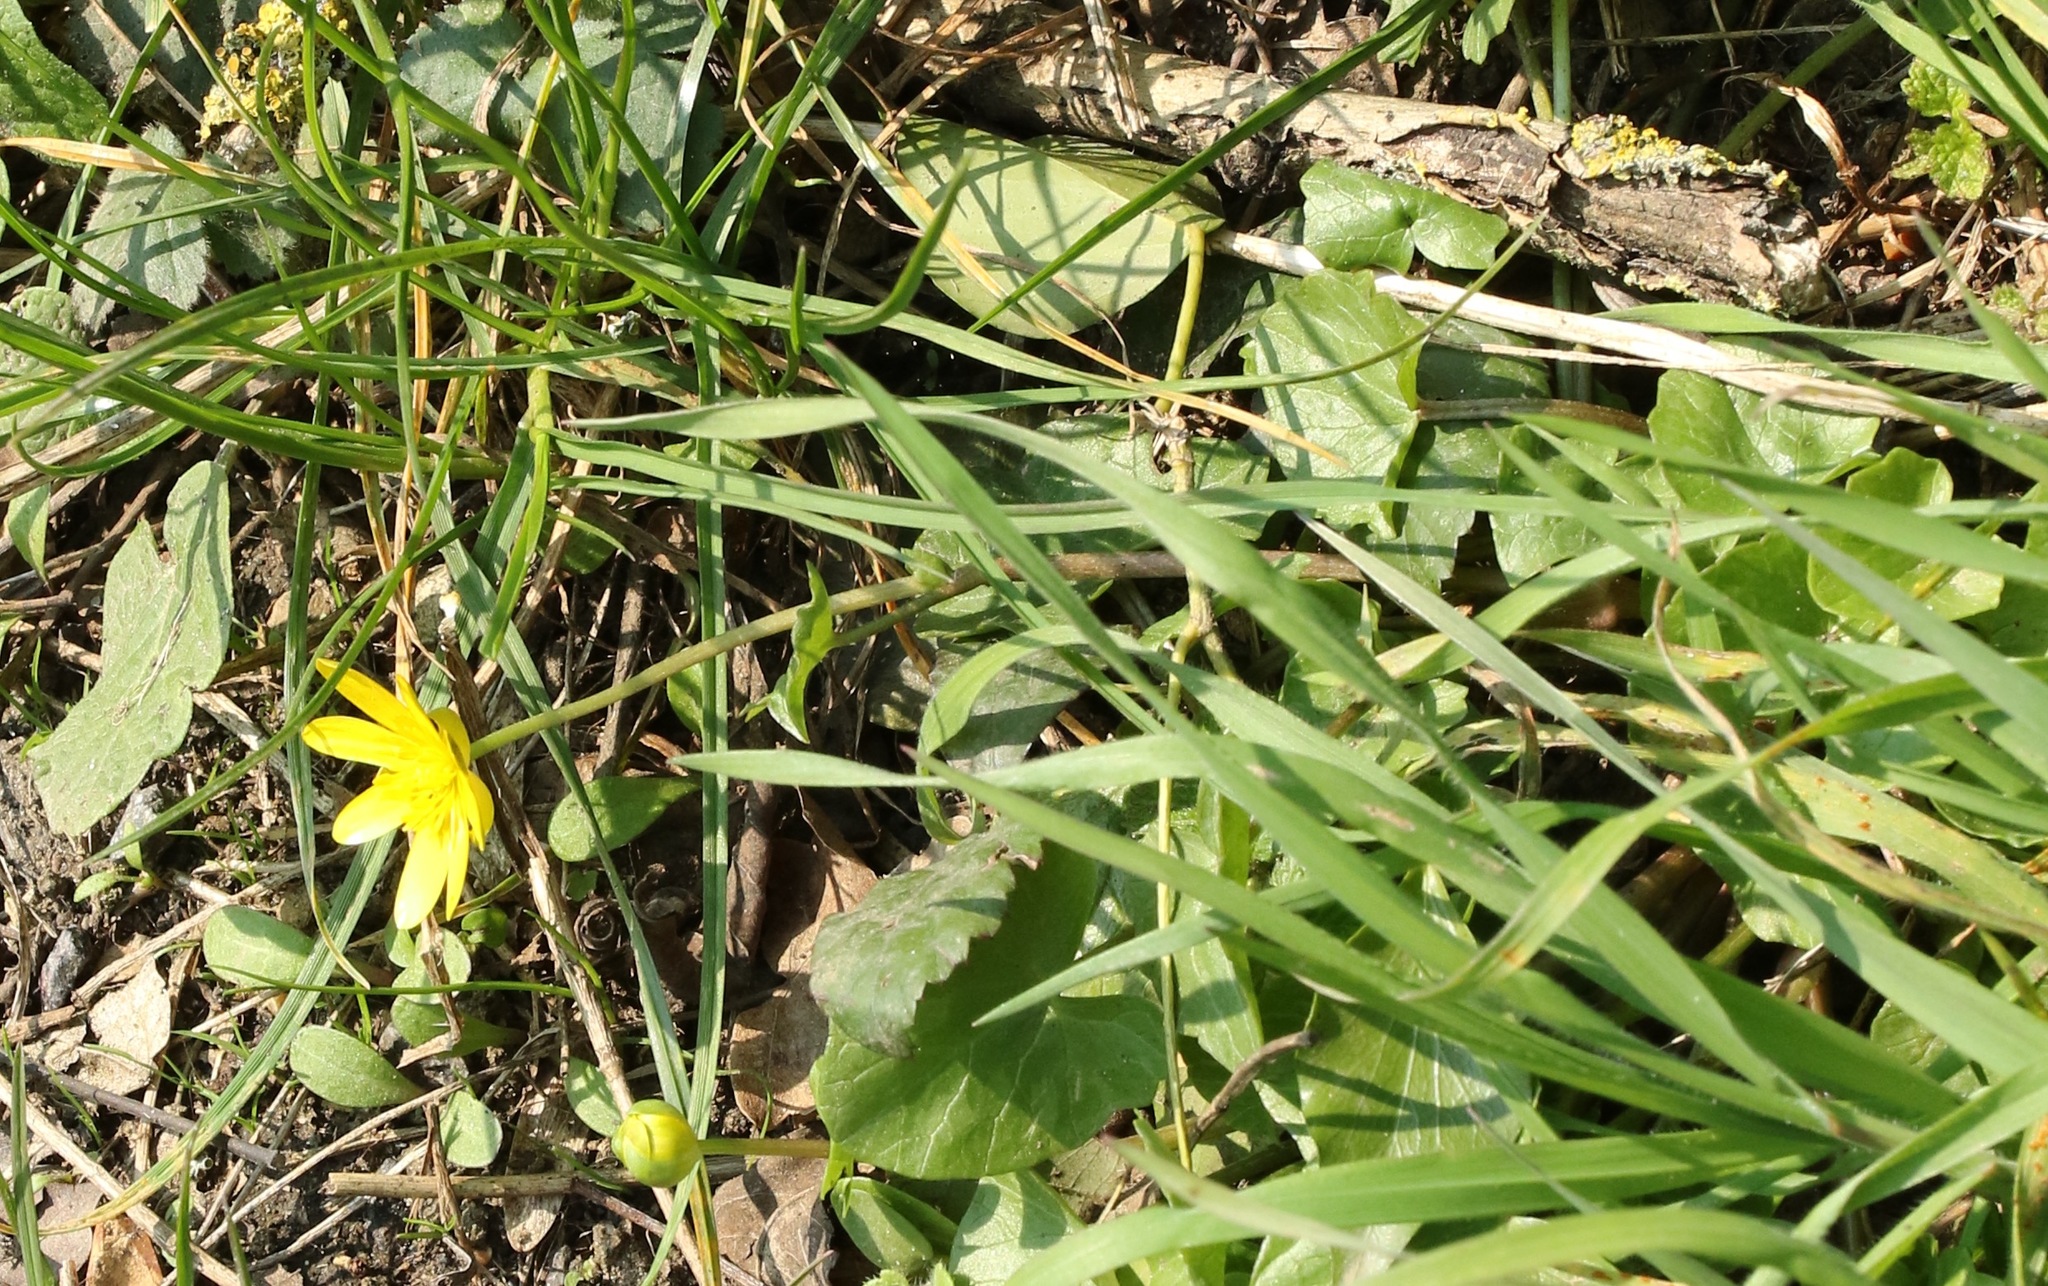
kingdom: Plantae
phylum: Tracheophyta
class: Magnoliopsida
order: Ranunculales
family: Ranunculaceae
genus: Ficaria
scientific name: Ficaria verna
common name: Lesser celandine
